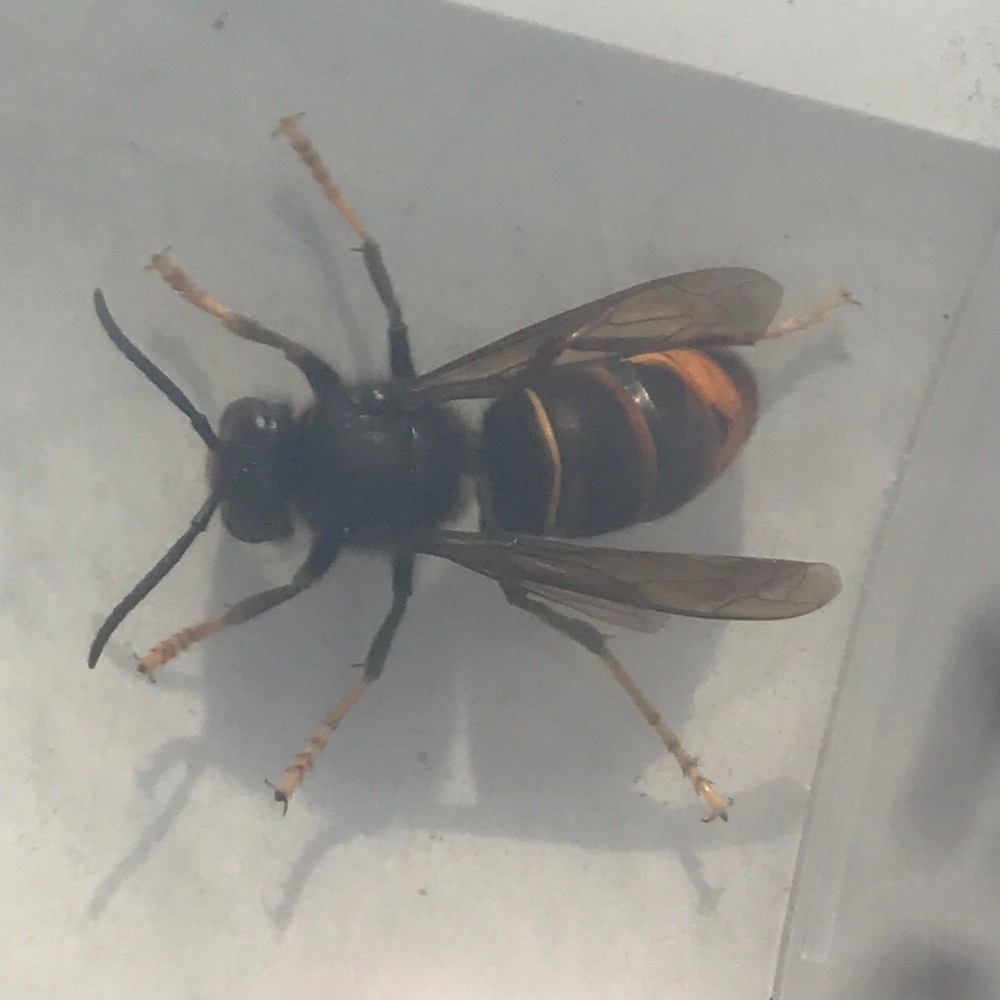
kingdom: Animalia
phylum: Arthropoda
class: Insecta
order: Hymenoptera
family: Vespidae
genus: Vespa
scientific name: Vespa velutina
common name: Asian hornet
